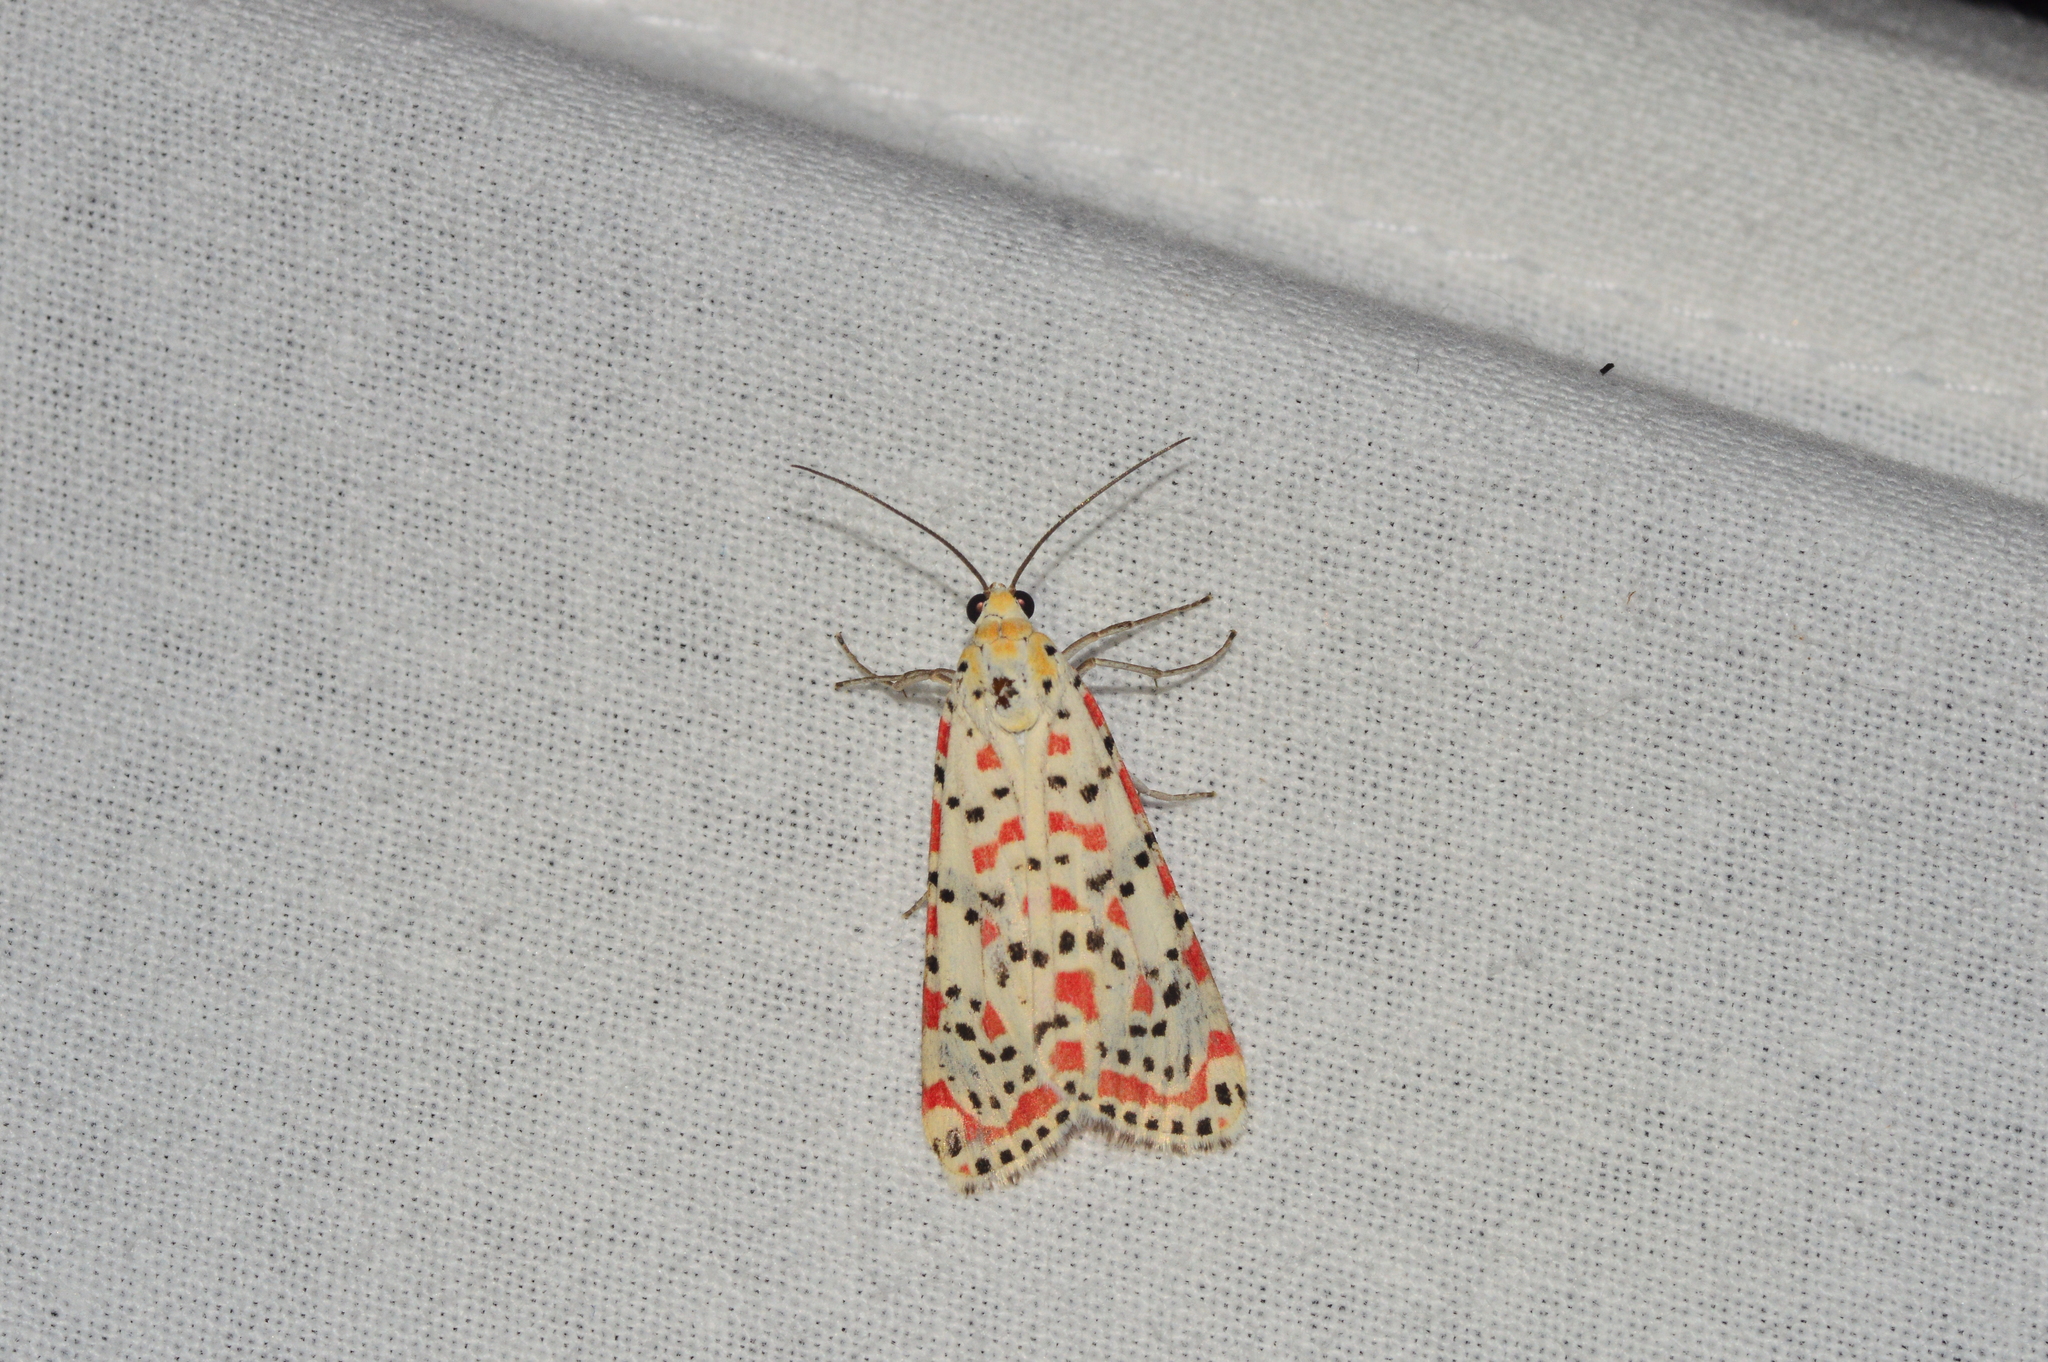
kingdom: Animalia
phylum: Arthropoda
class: Insecta
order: Lepidoptera
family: Erebidae
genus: Utetheisa
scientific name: Utetheisa pulchelloides
